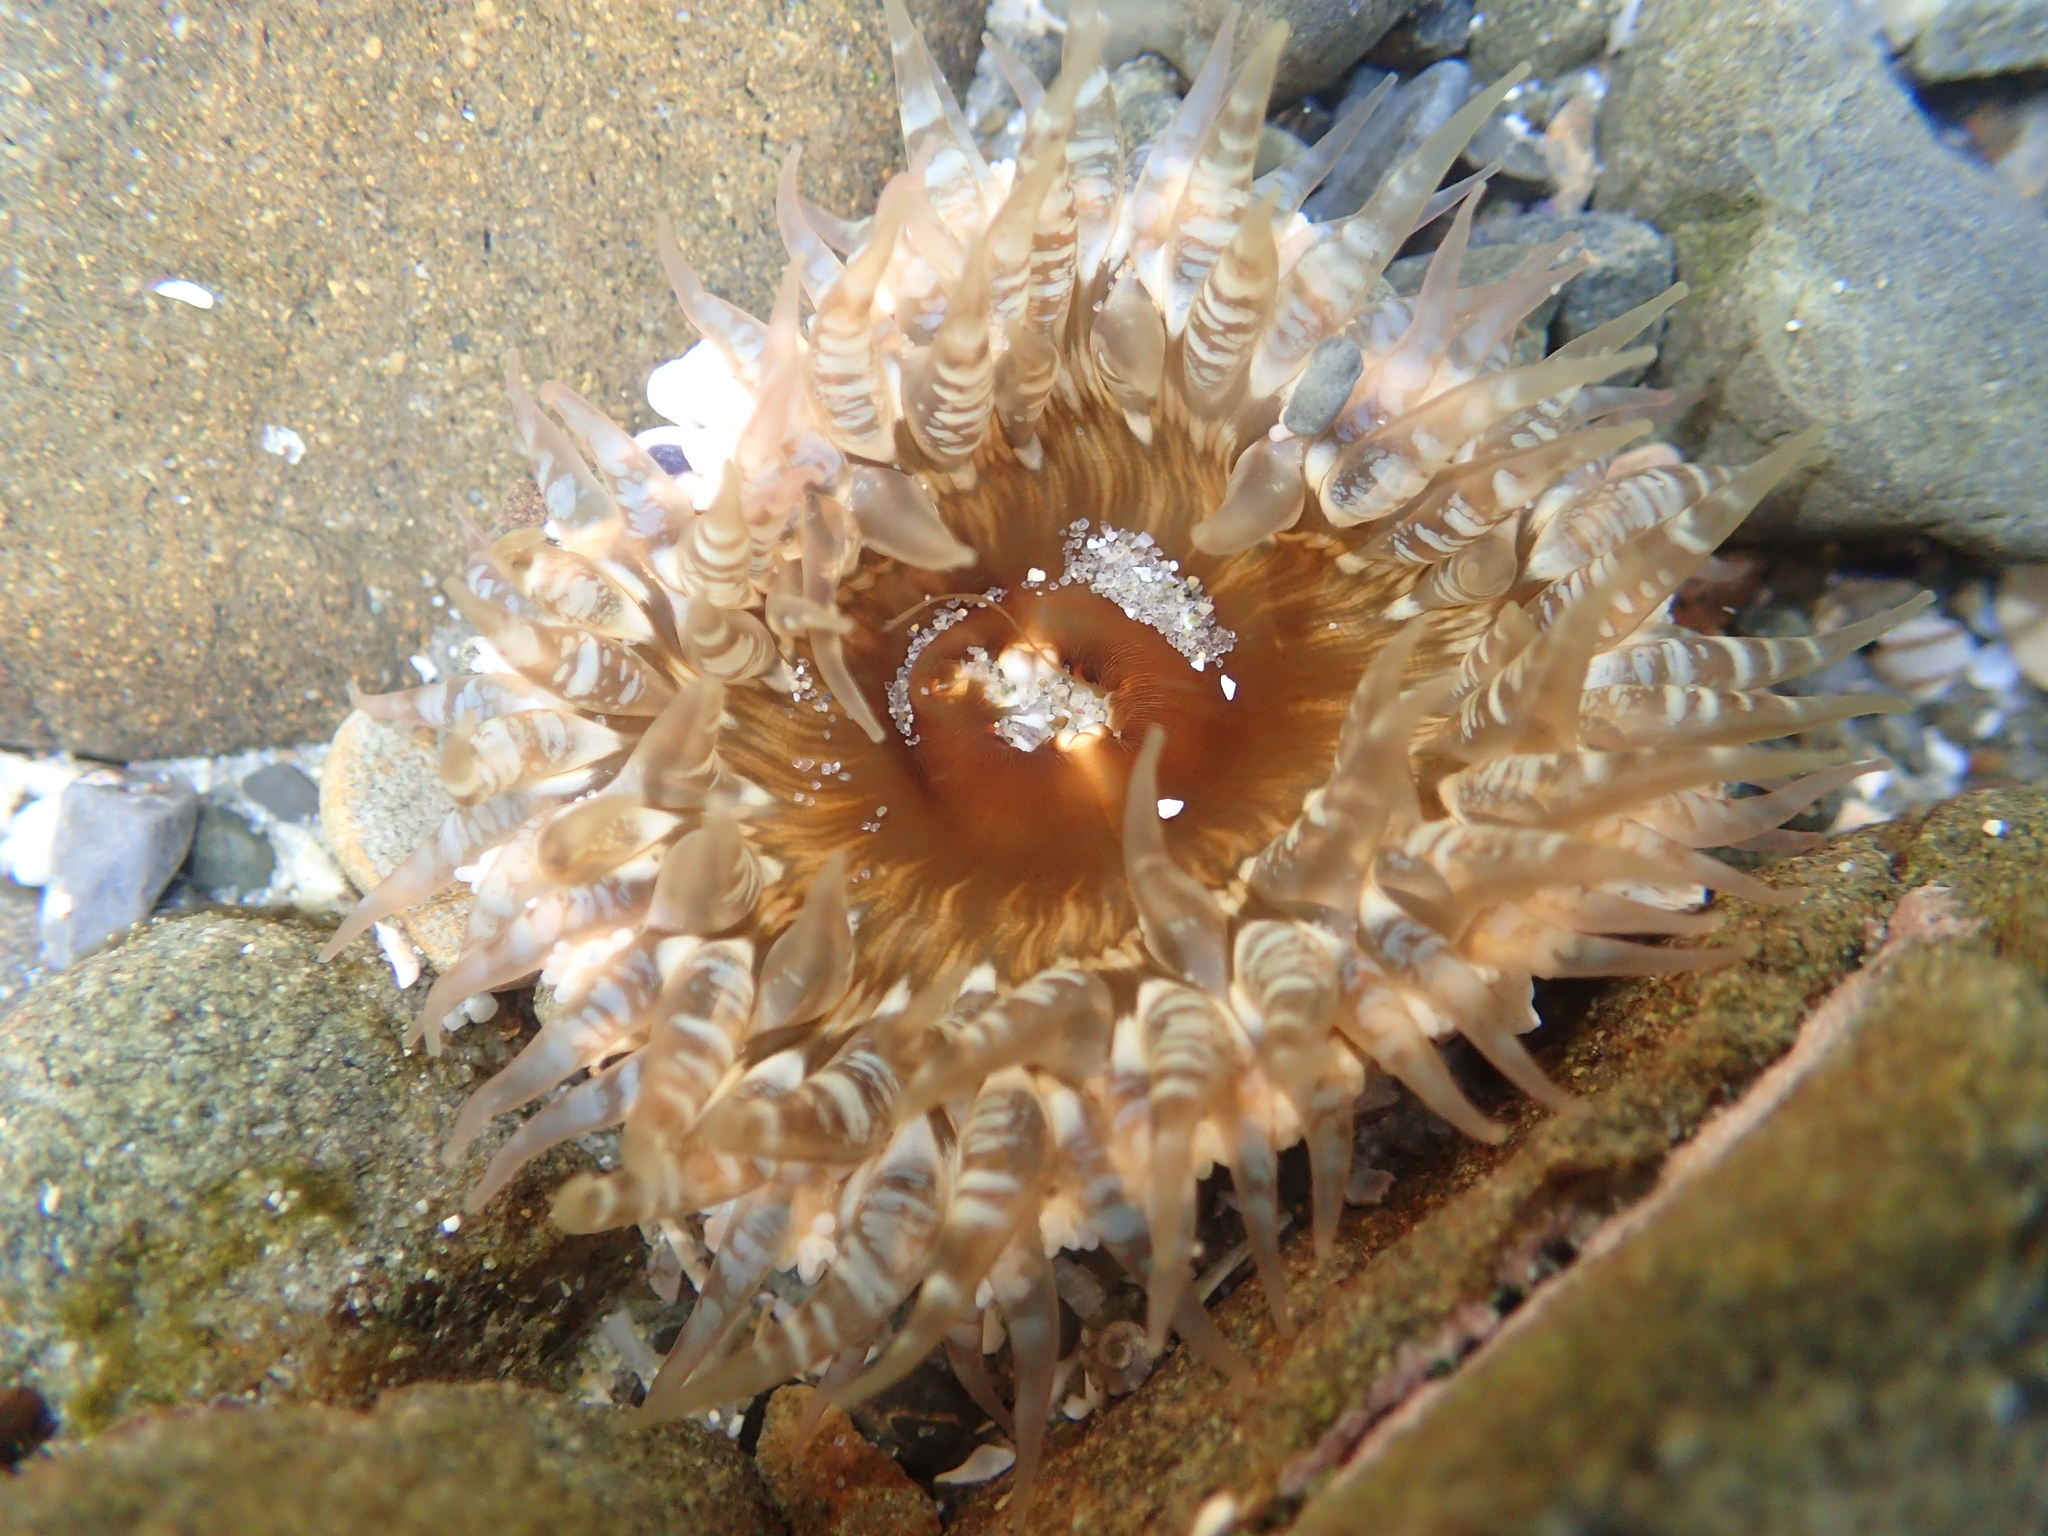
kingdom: Animalia
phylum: Cnidaria
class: Anthozoa
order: Actiniaria
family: Actiniidae
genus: Oulactis
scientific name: Oulactis muscosa
